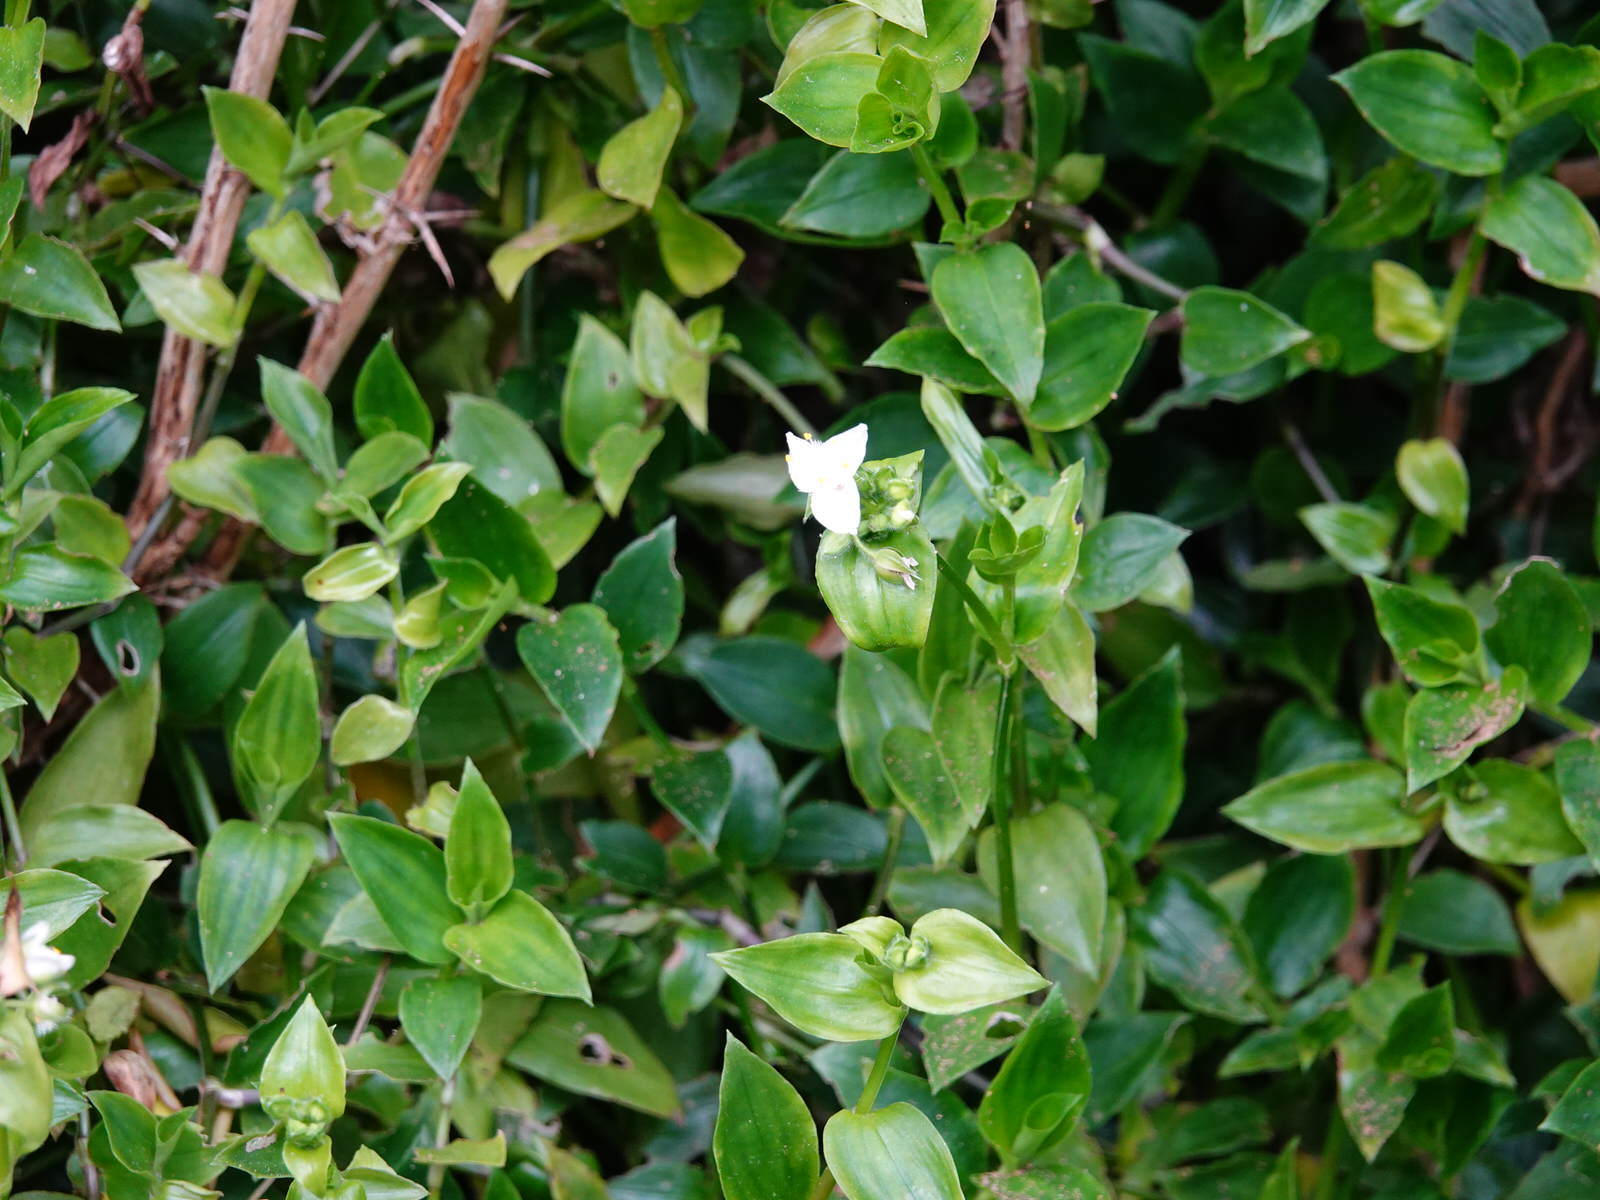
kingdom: Plantae
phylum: Tracheophyta
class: Liliopsida
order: Commelinales
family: Commelinaceae
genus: Tradescantia
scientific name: Tradescantia fluminensis
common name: Wandering-jew
